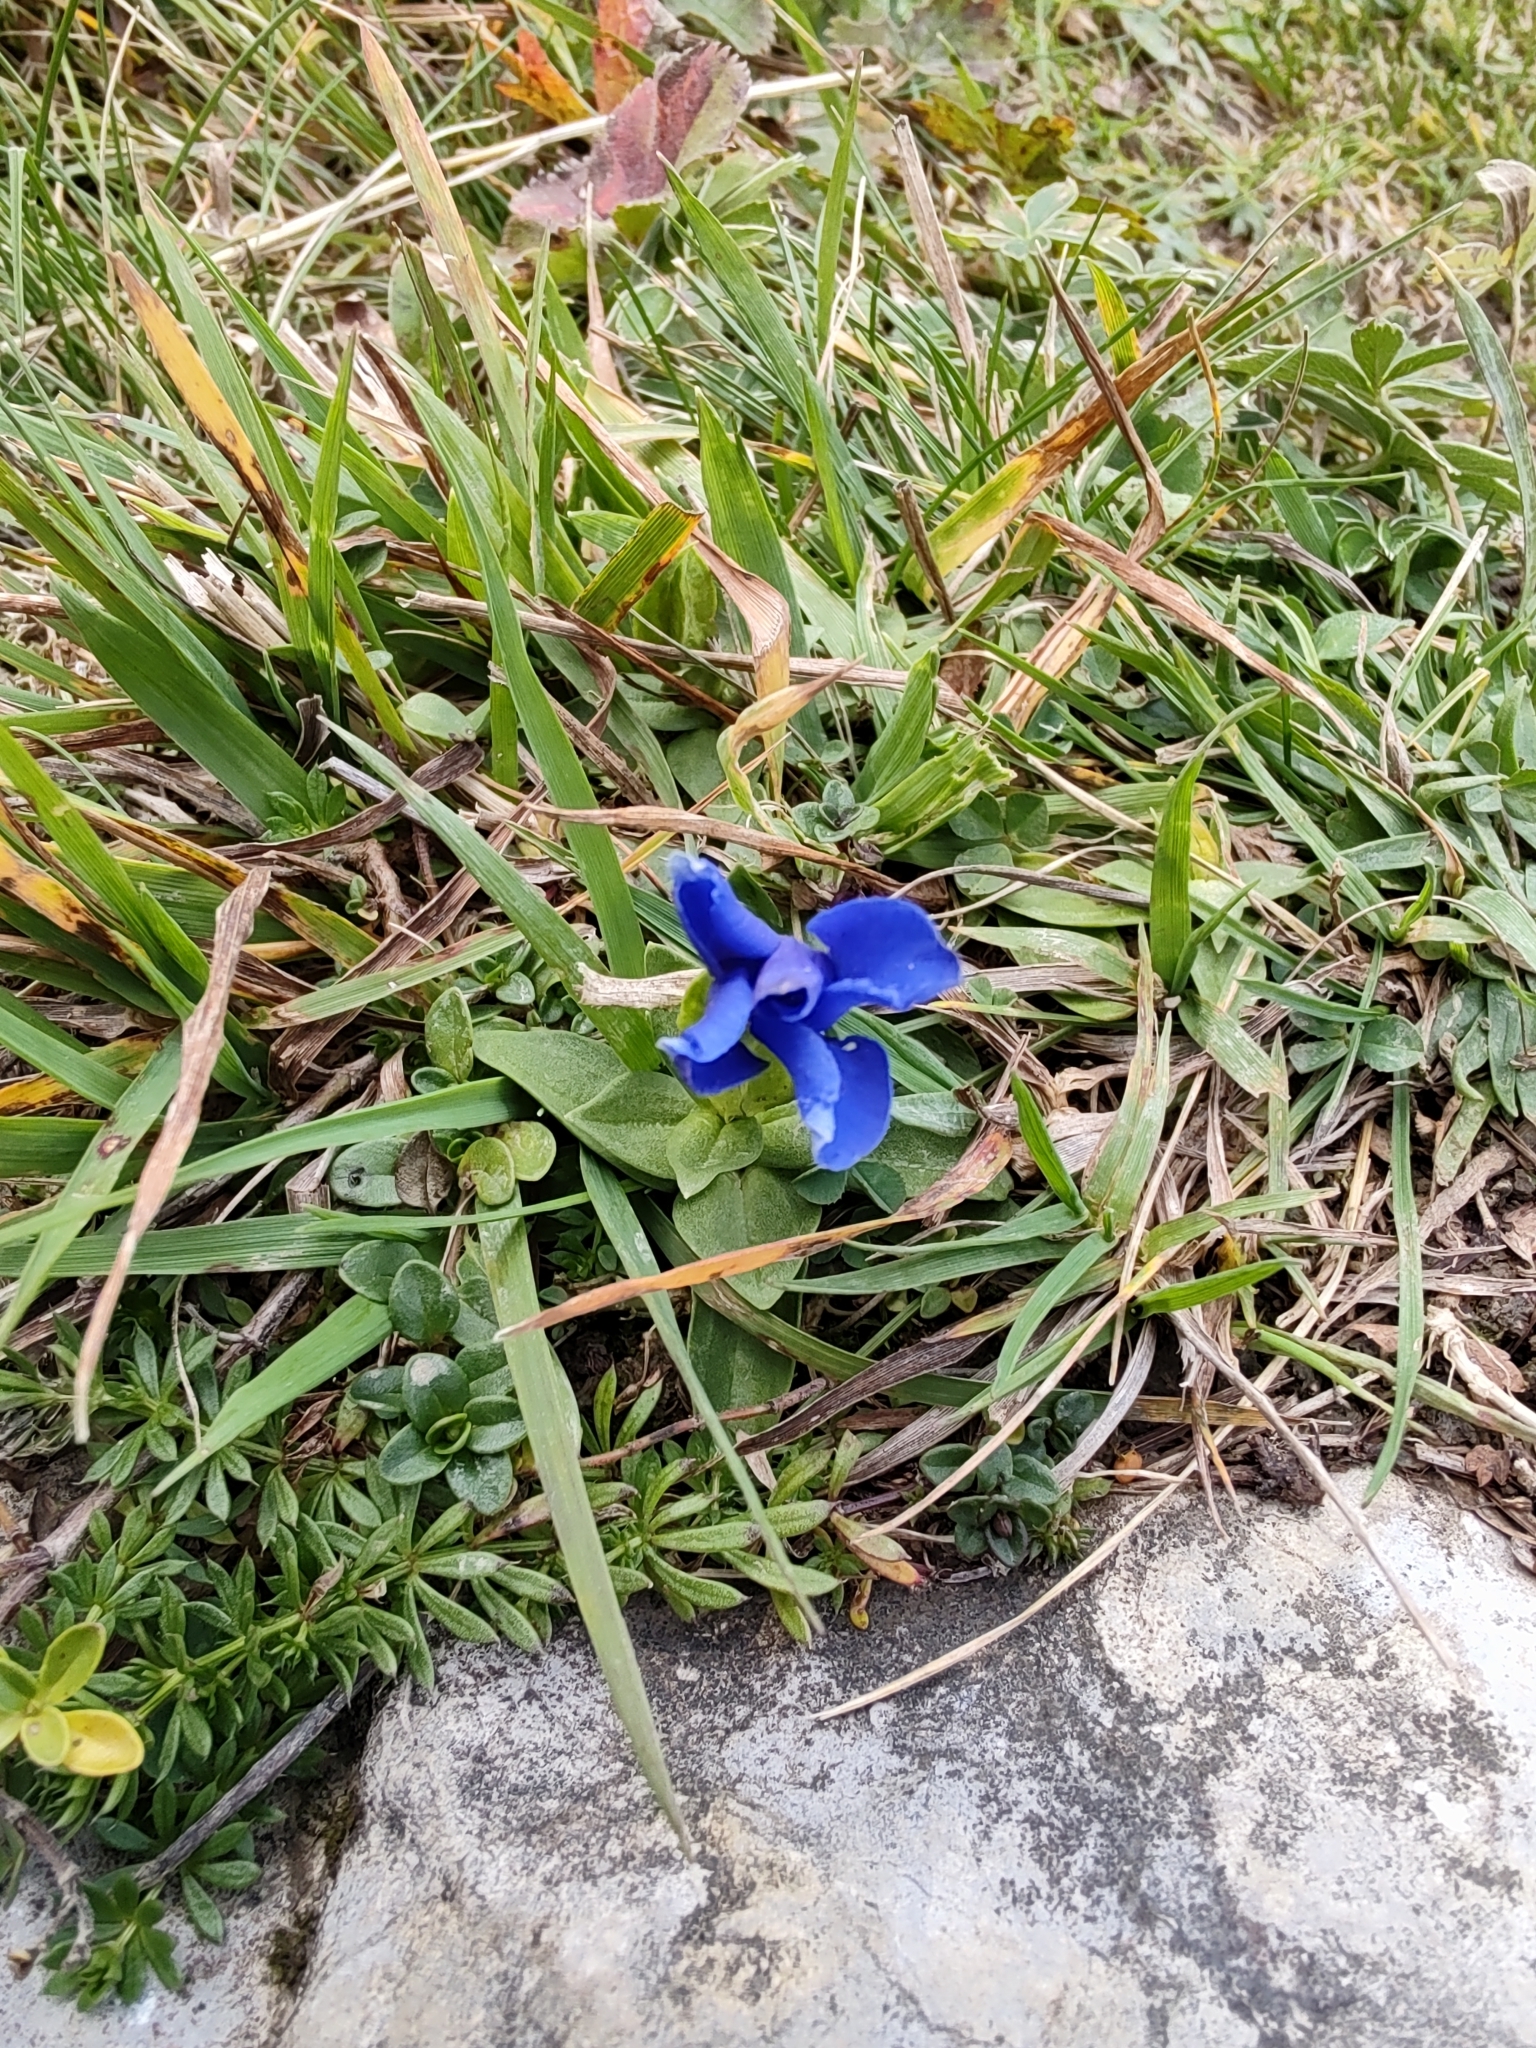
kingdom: Plantae
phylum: Tracheophyta
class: Magnoliopsida
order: Gentianales
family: Gentianaceae
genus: Gentiana
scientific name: Gentiana verna
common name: Spring gentian
